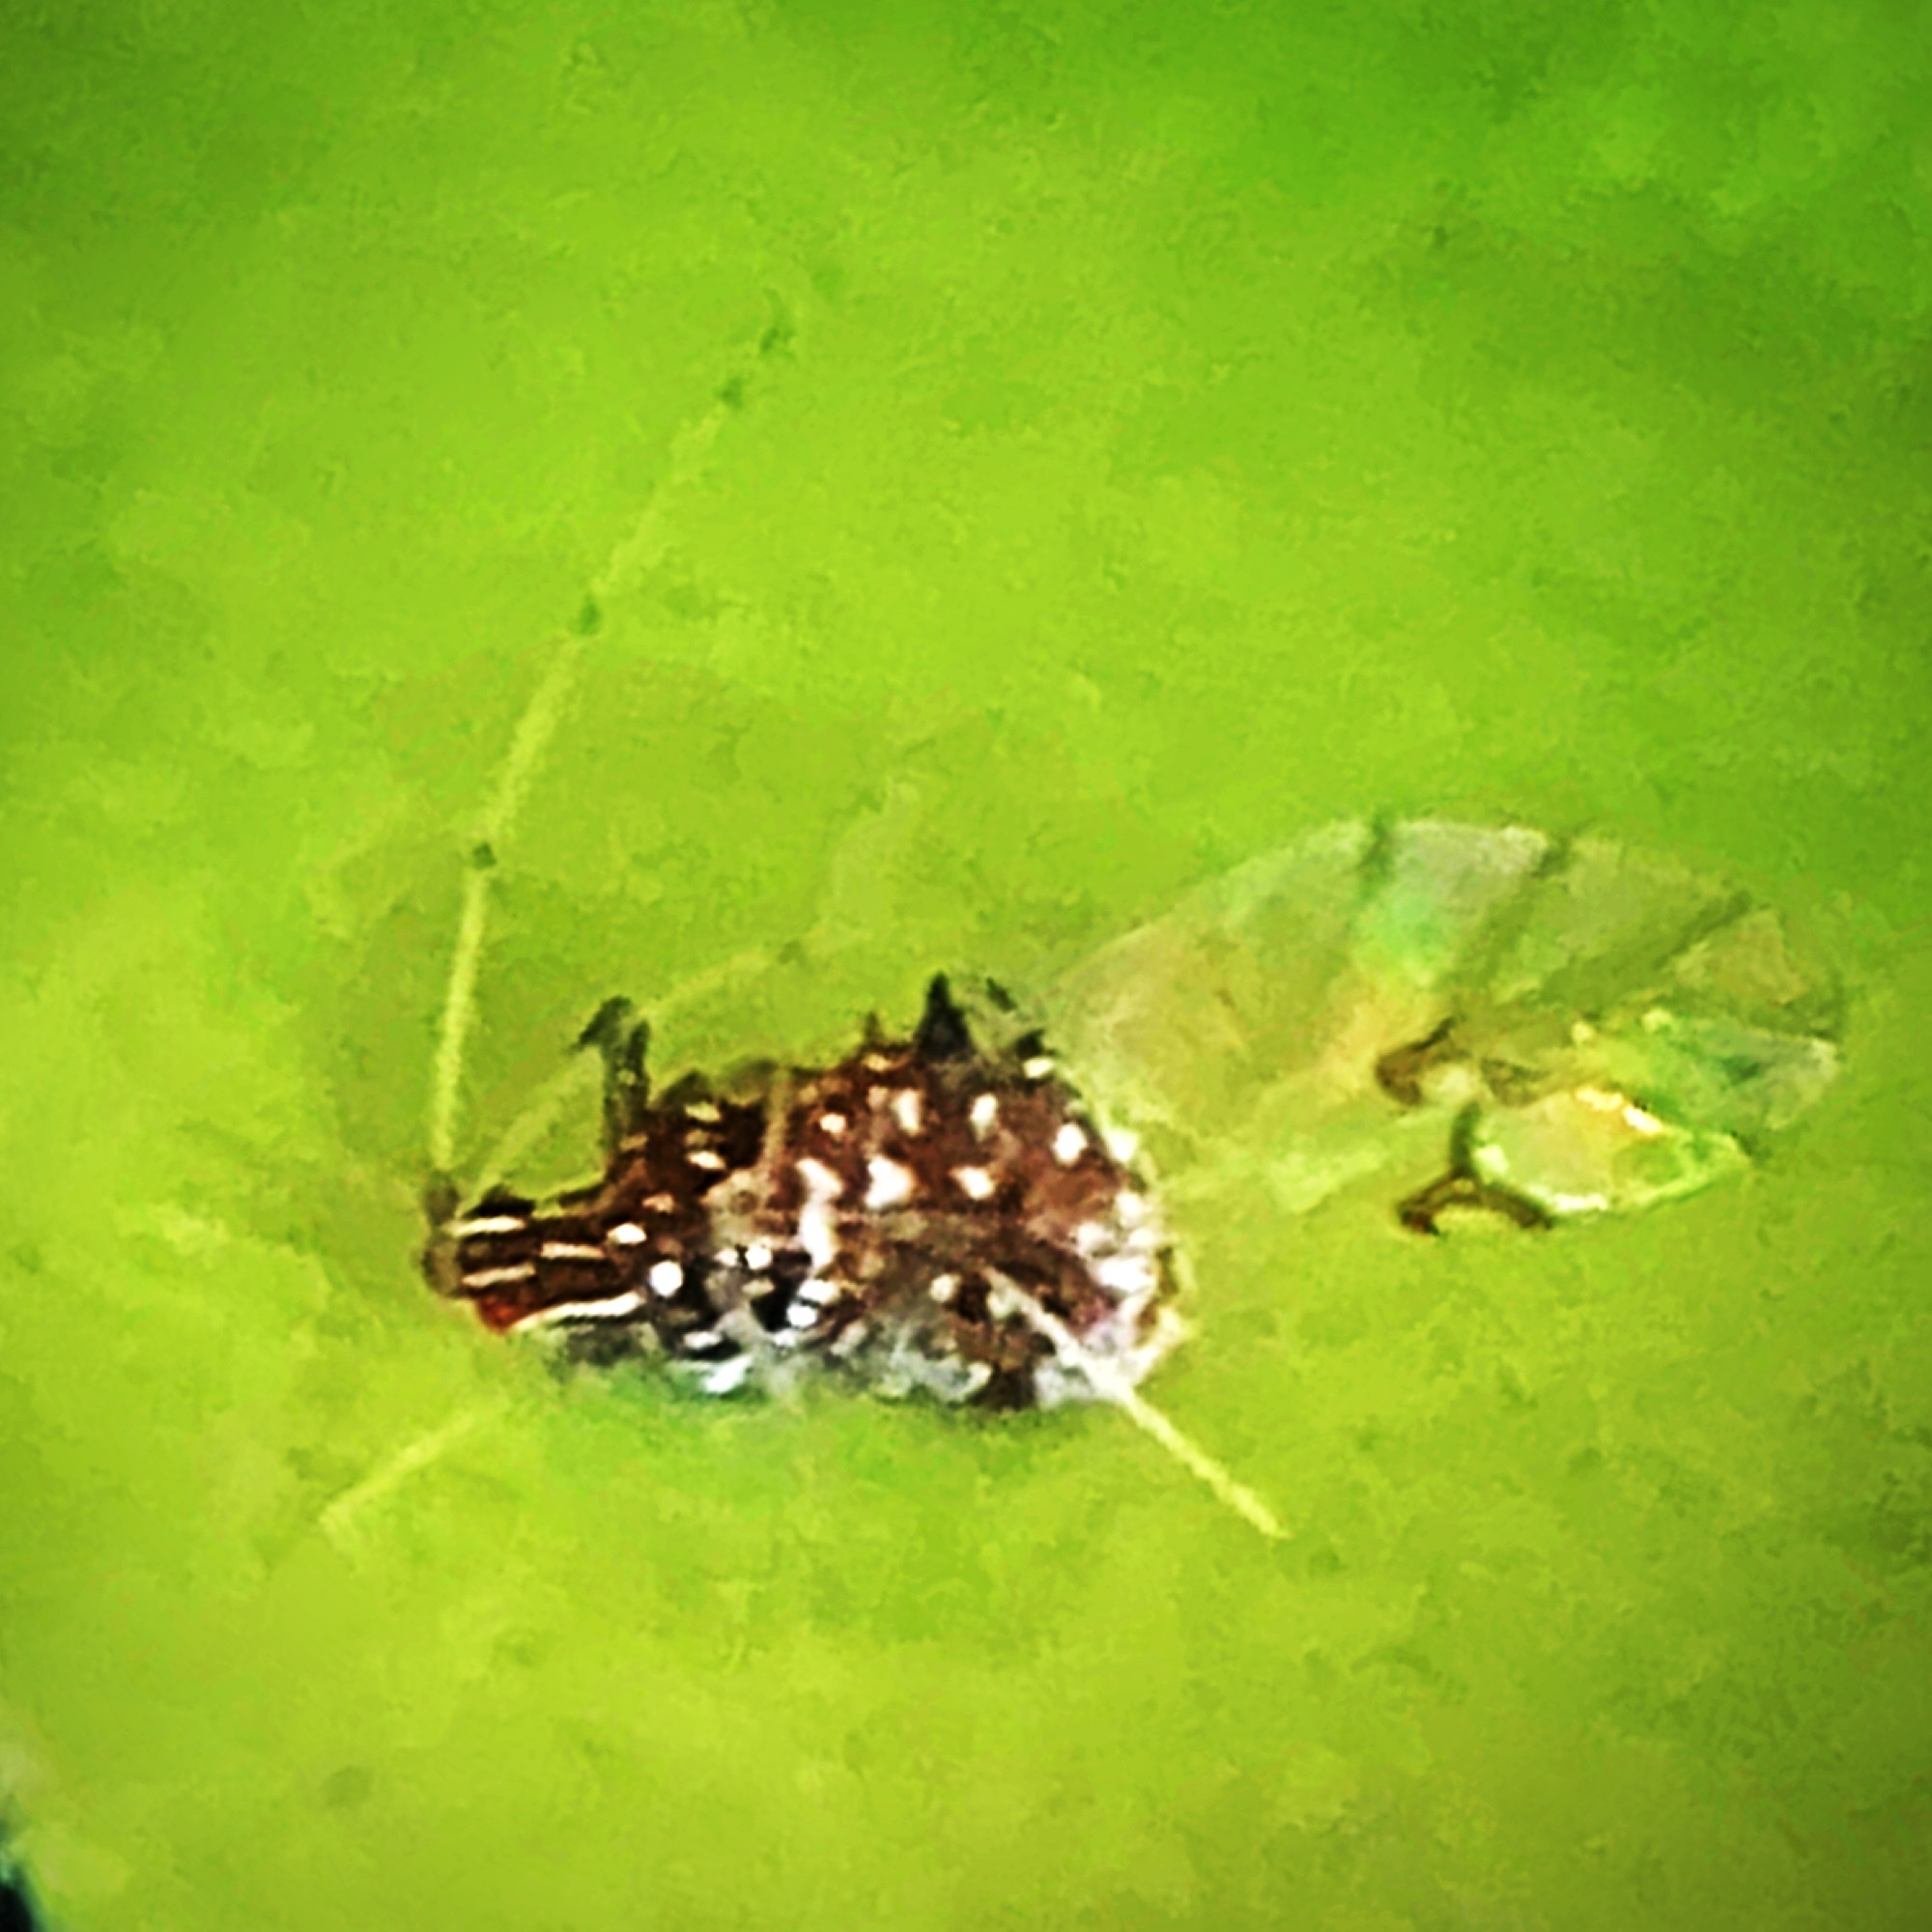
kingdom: Animalia
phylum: Arthropoda
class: Insecta
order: Hemiptera
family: Aphididae
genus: Drepanaphis
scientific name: Drepanaphis carolinensis
